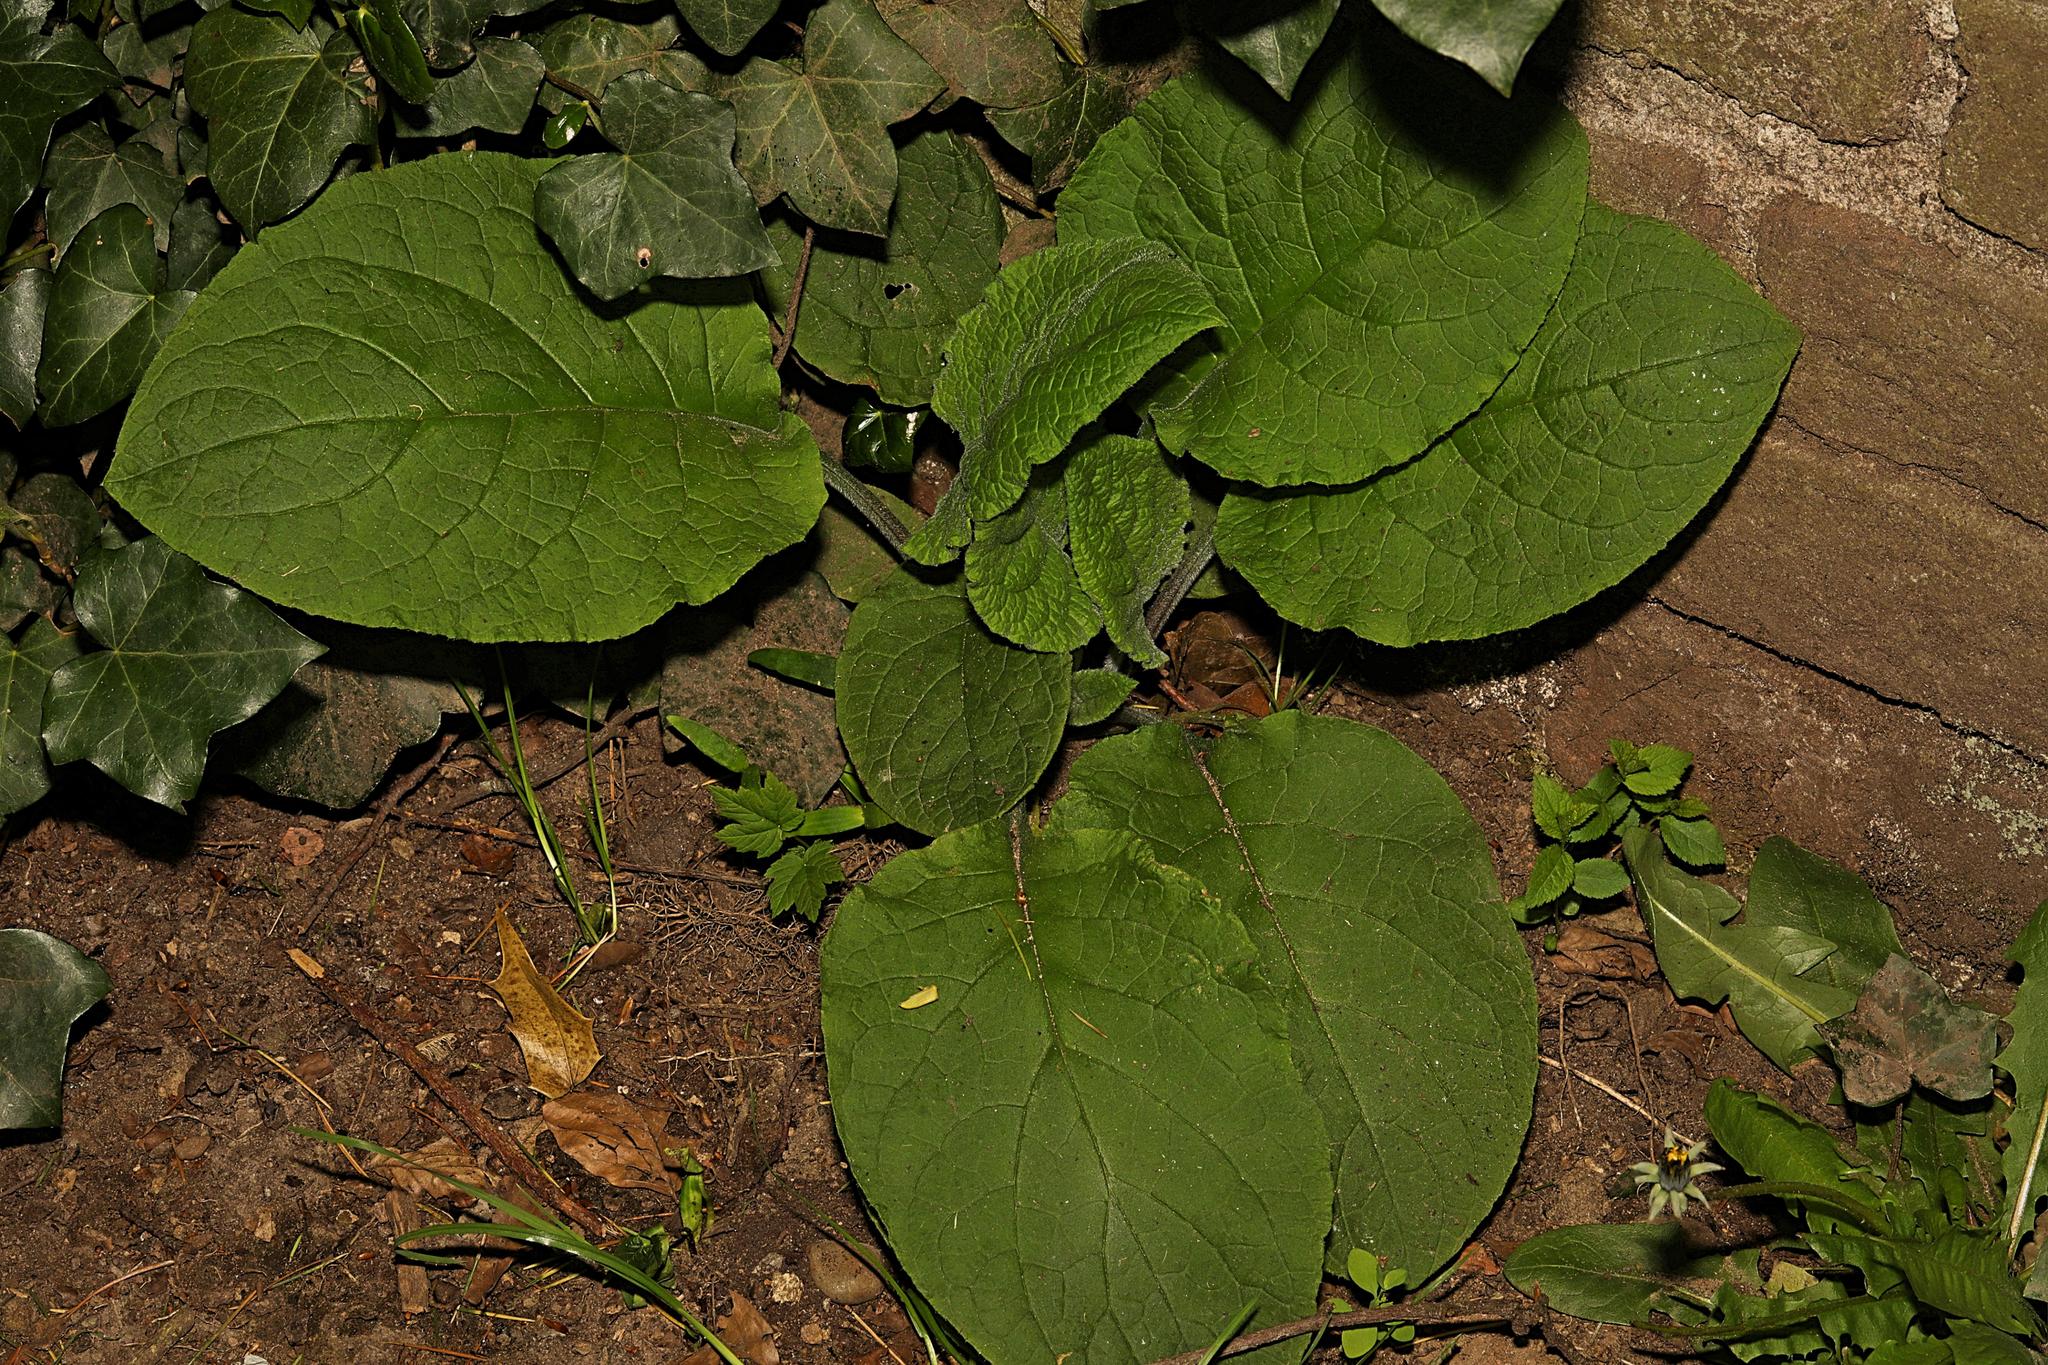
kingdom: Plantae
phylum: Tracheophyta
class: Magnoliopsida
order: Lamiales
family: Plantaginaceae
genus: Digitalis
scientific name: Digitalis purpurea
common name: Foxglove
